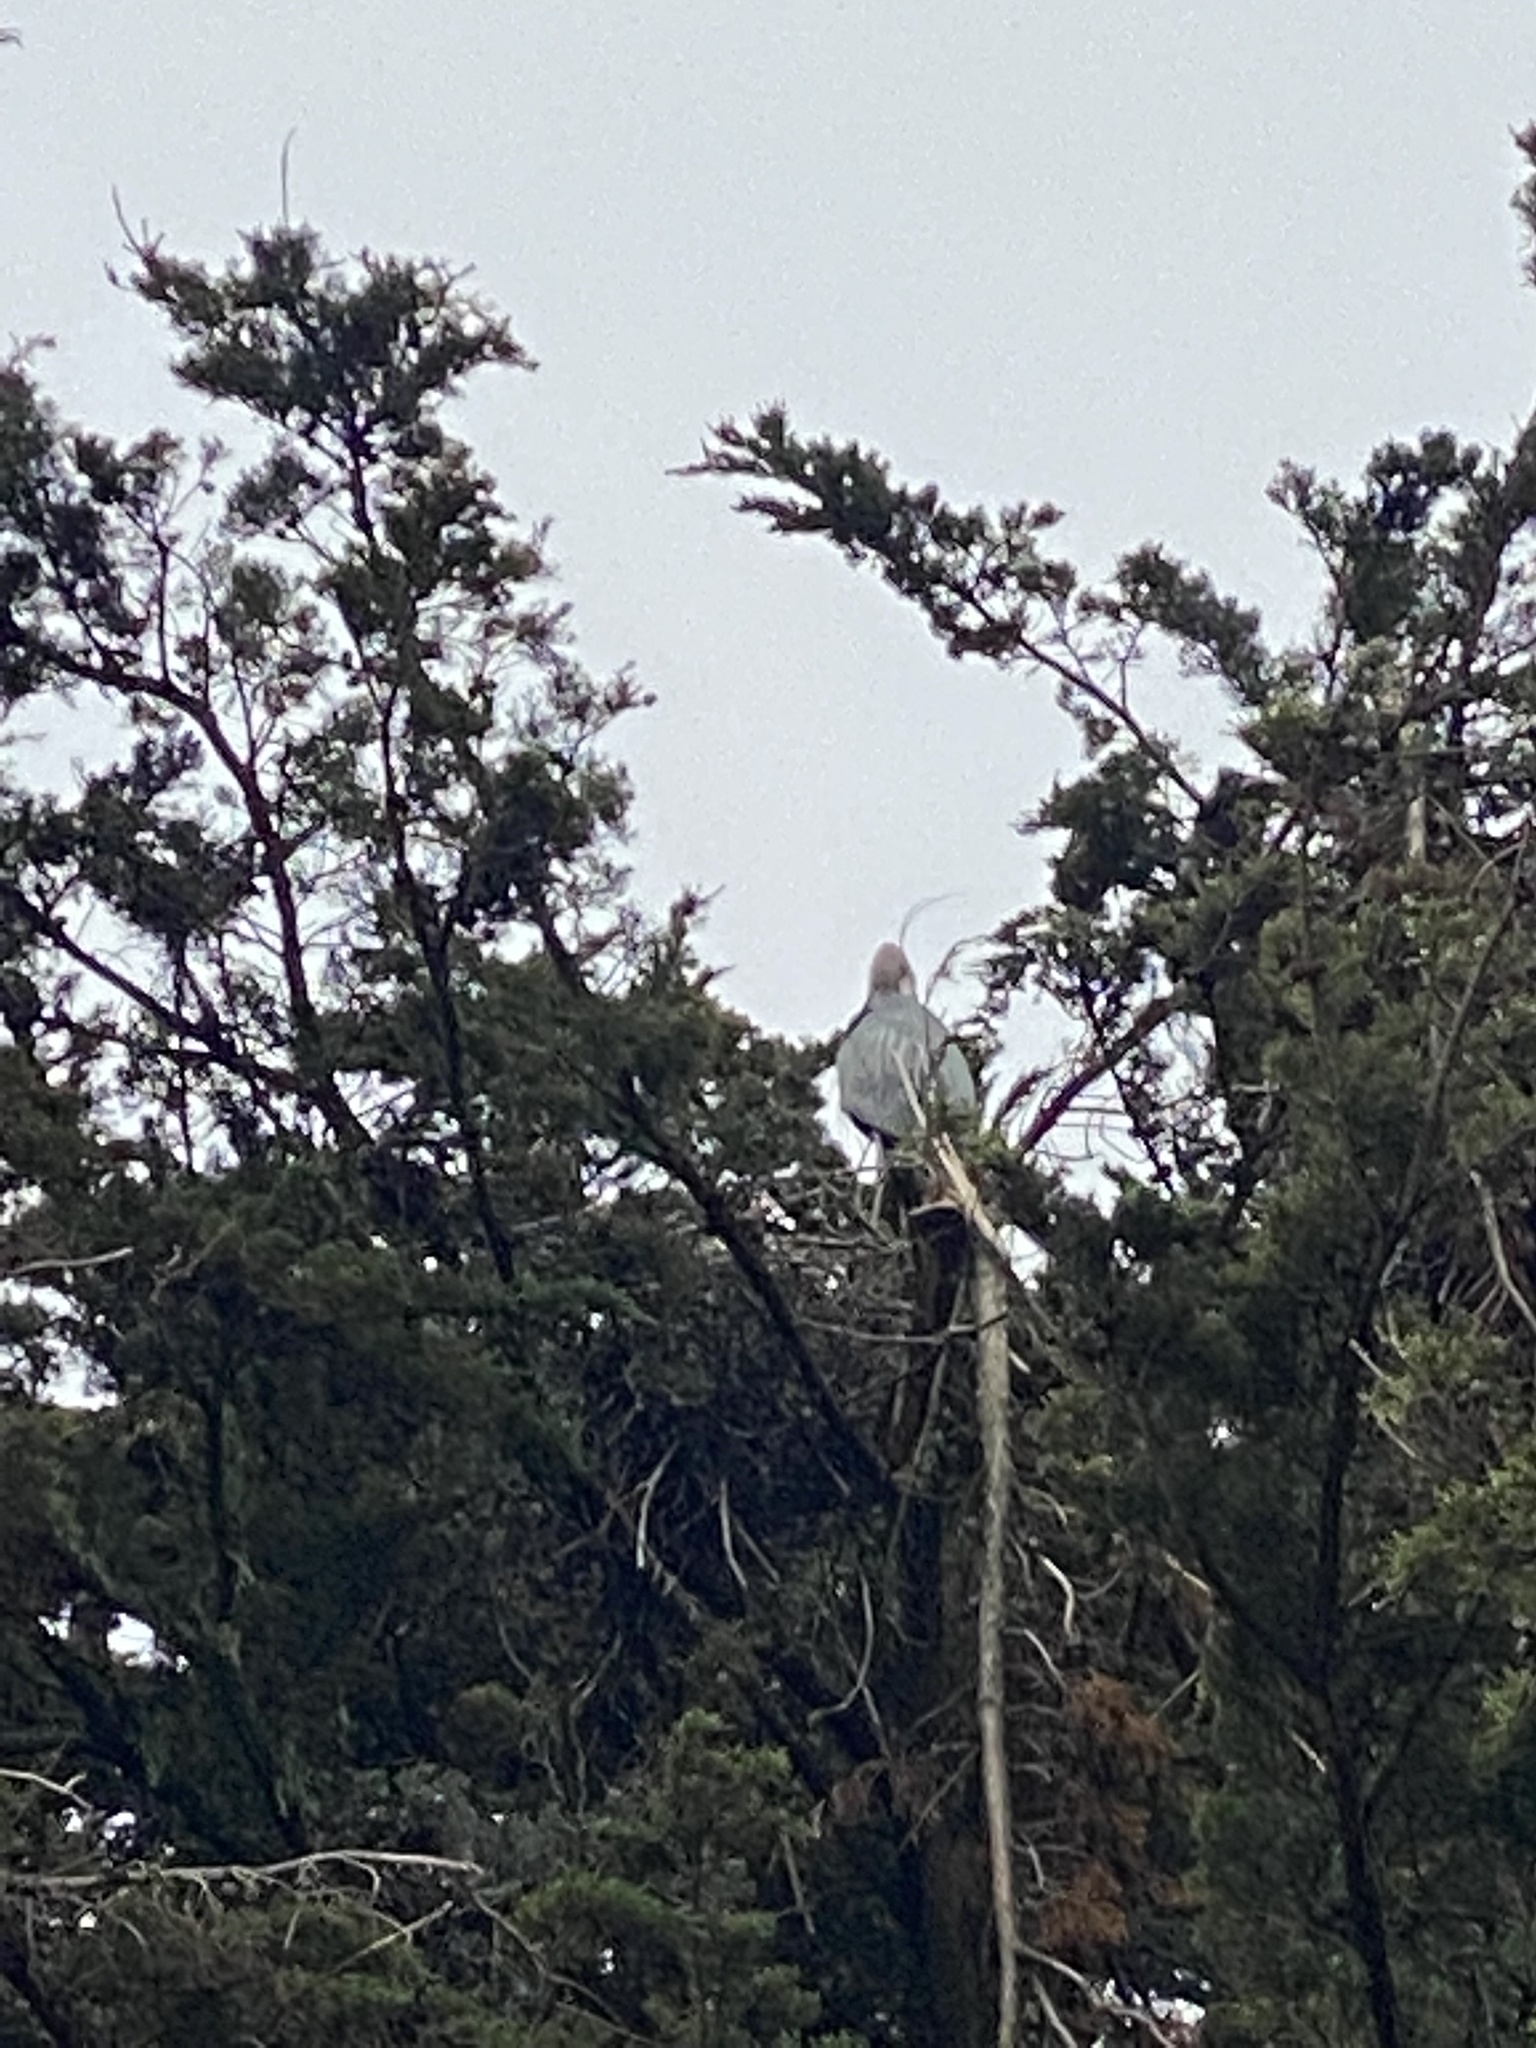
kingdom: Animalia
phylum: Chordata
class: Aves
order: Pelecaniformes
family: Ardeidae
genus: Ardea
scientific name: Ardea herodias
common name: Great blue heron
